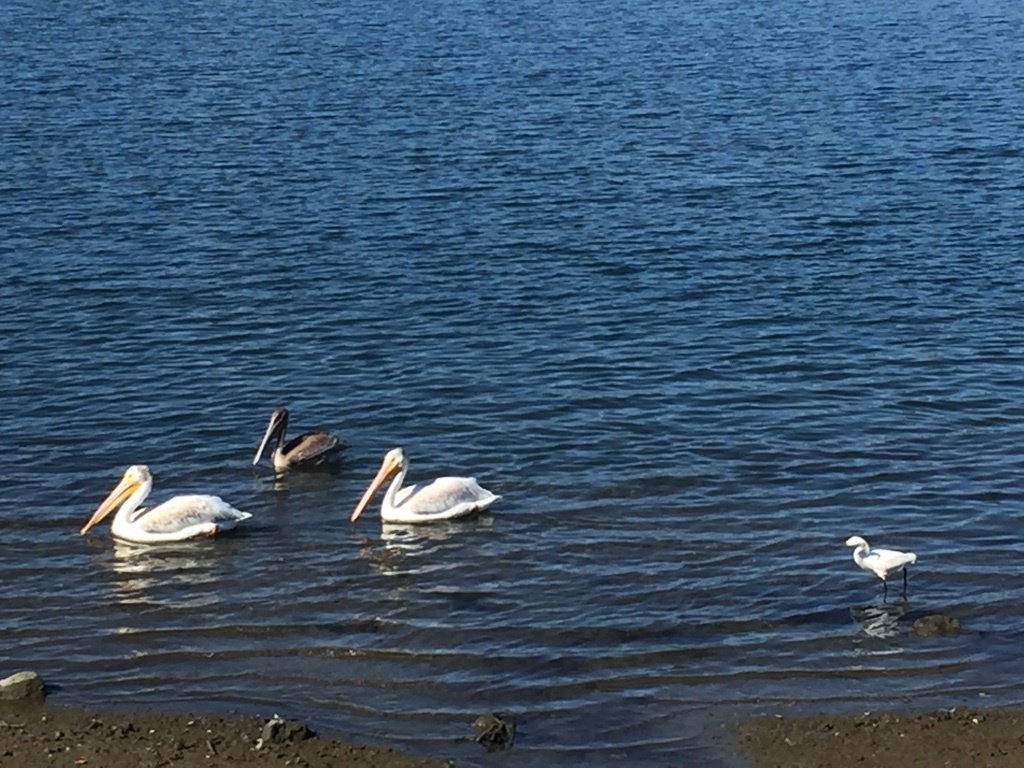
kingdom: Animalia
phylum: Chordata
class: Aves
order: Pelecaniformes
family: Pelecanidae
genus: Pelecanus
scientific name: Pelecanus erythrorhynchos
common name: American white pelican
